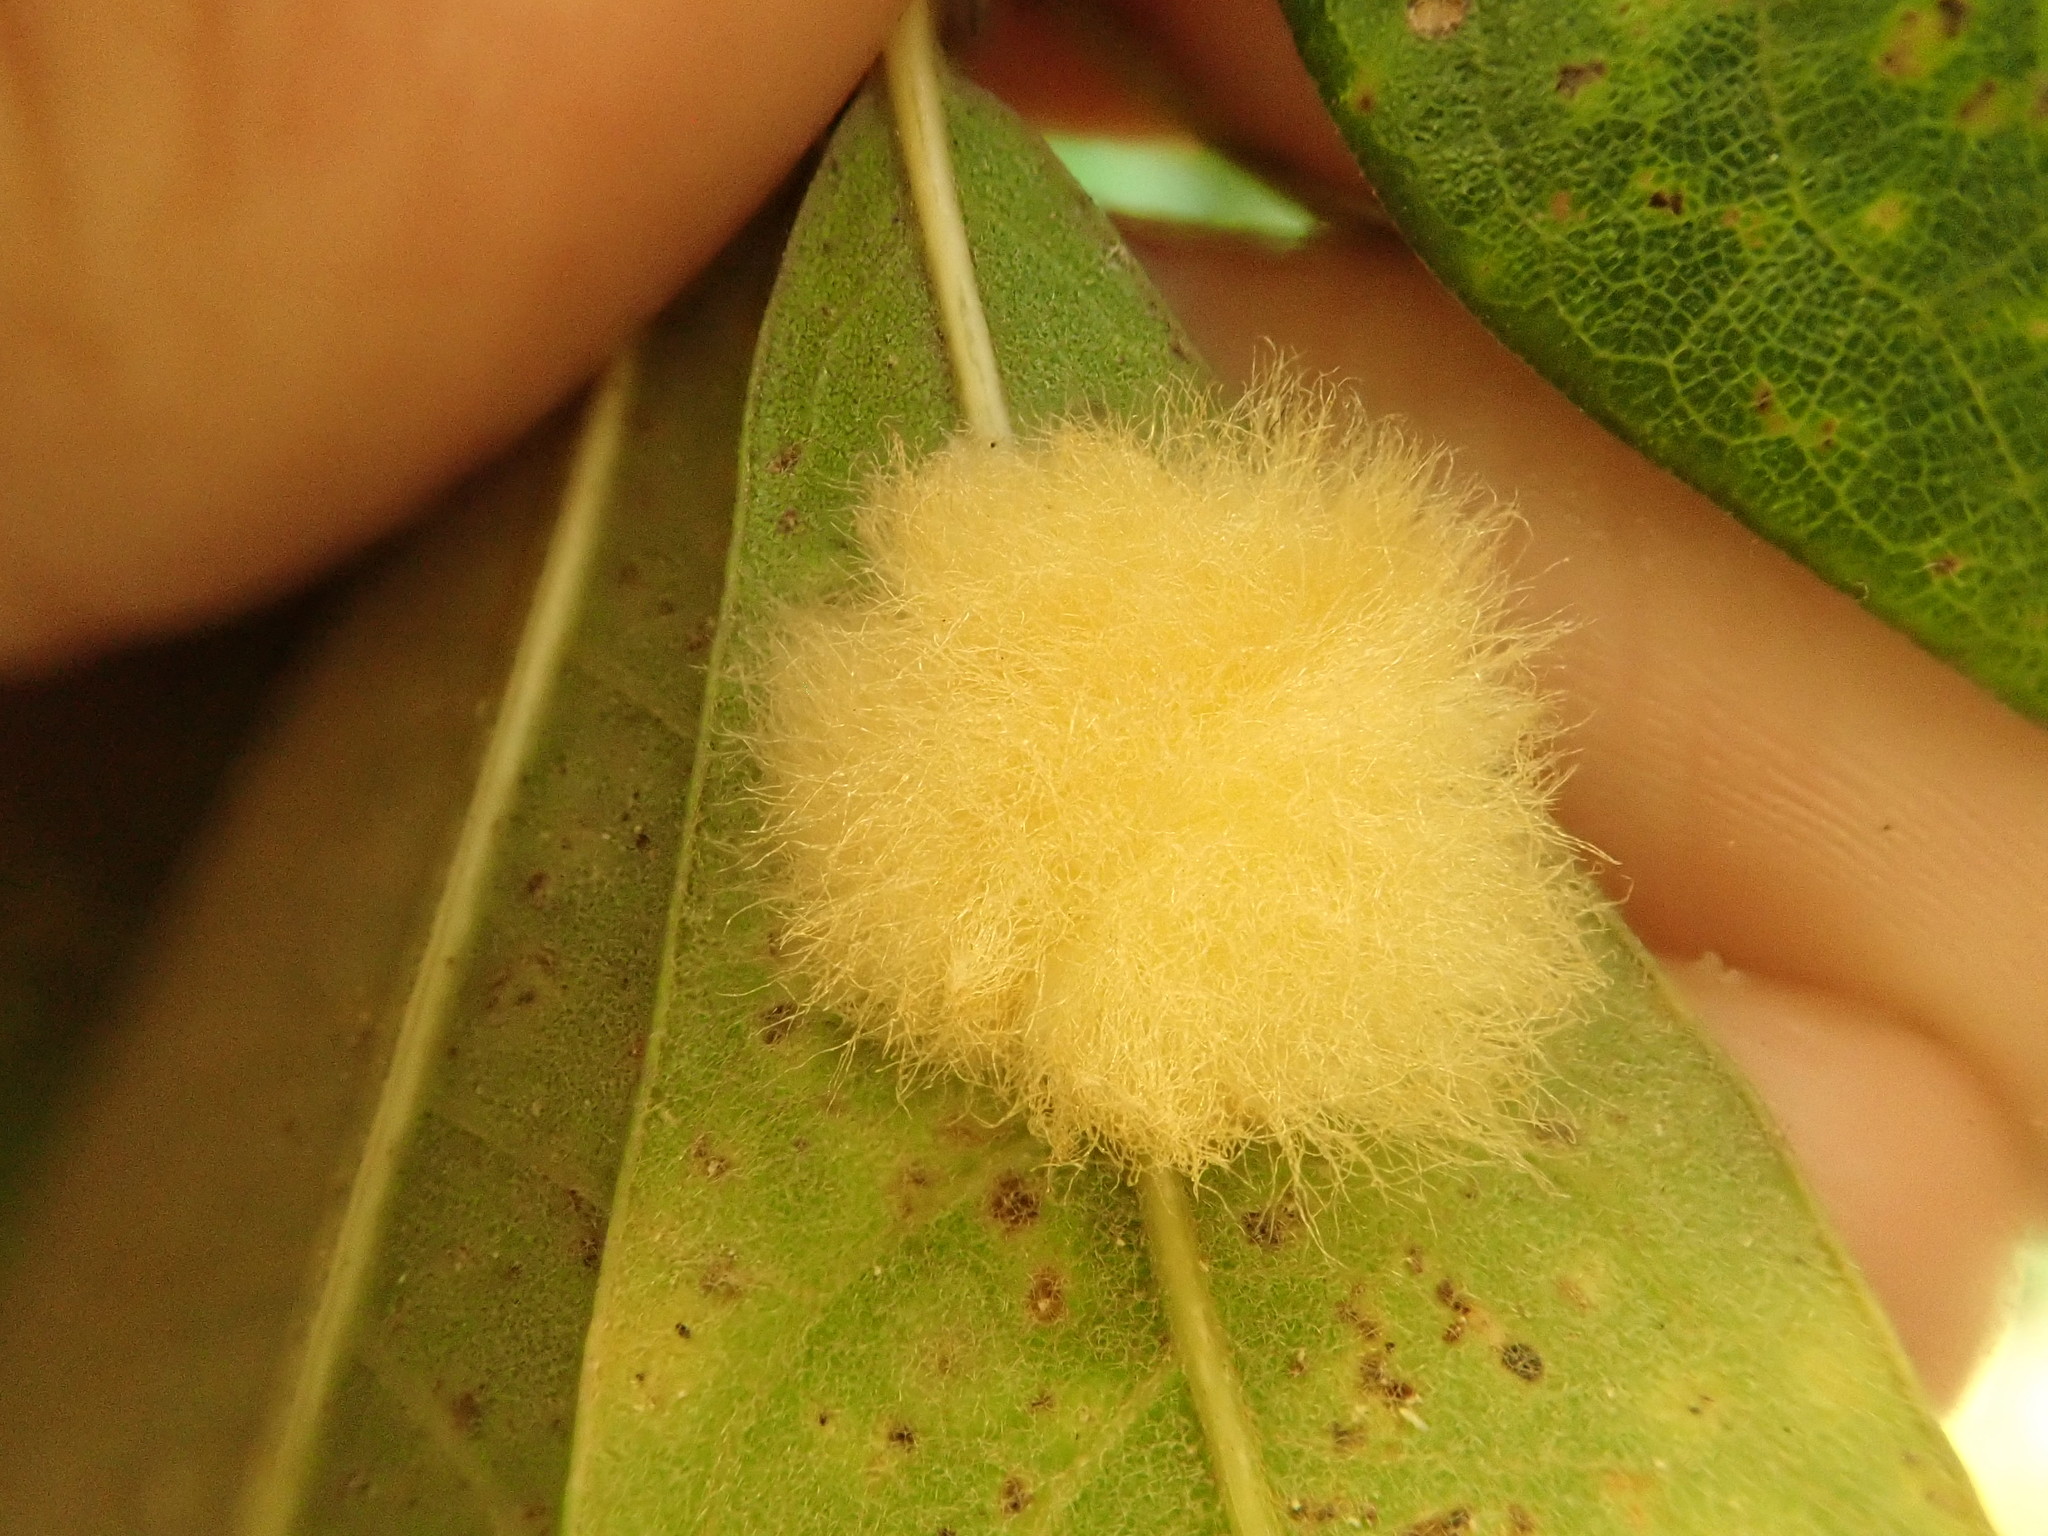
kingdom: Animalia
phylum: Arthropoda
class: Insecta
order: Hymenoptera
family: Cynipidae
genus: Neuroterus
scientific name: Neuroterus
